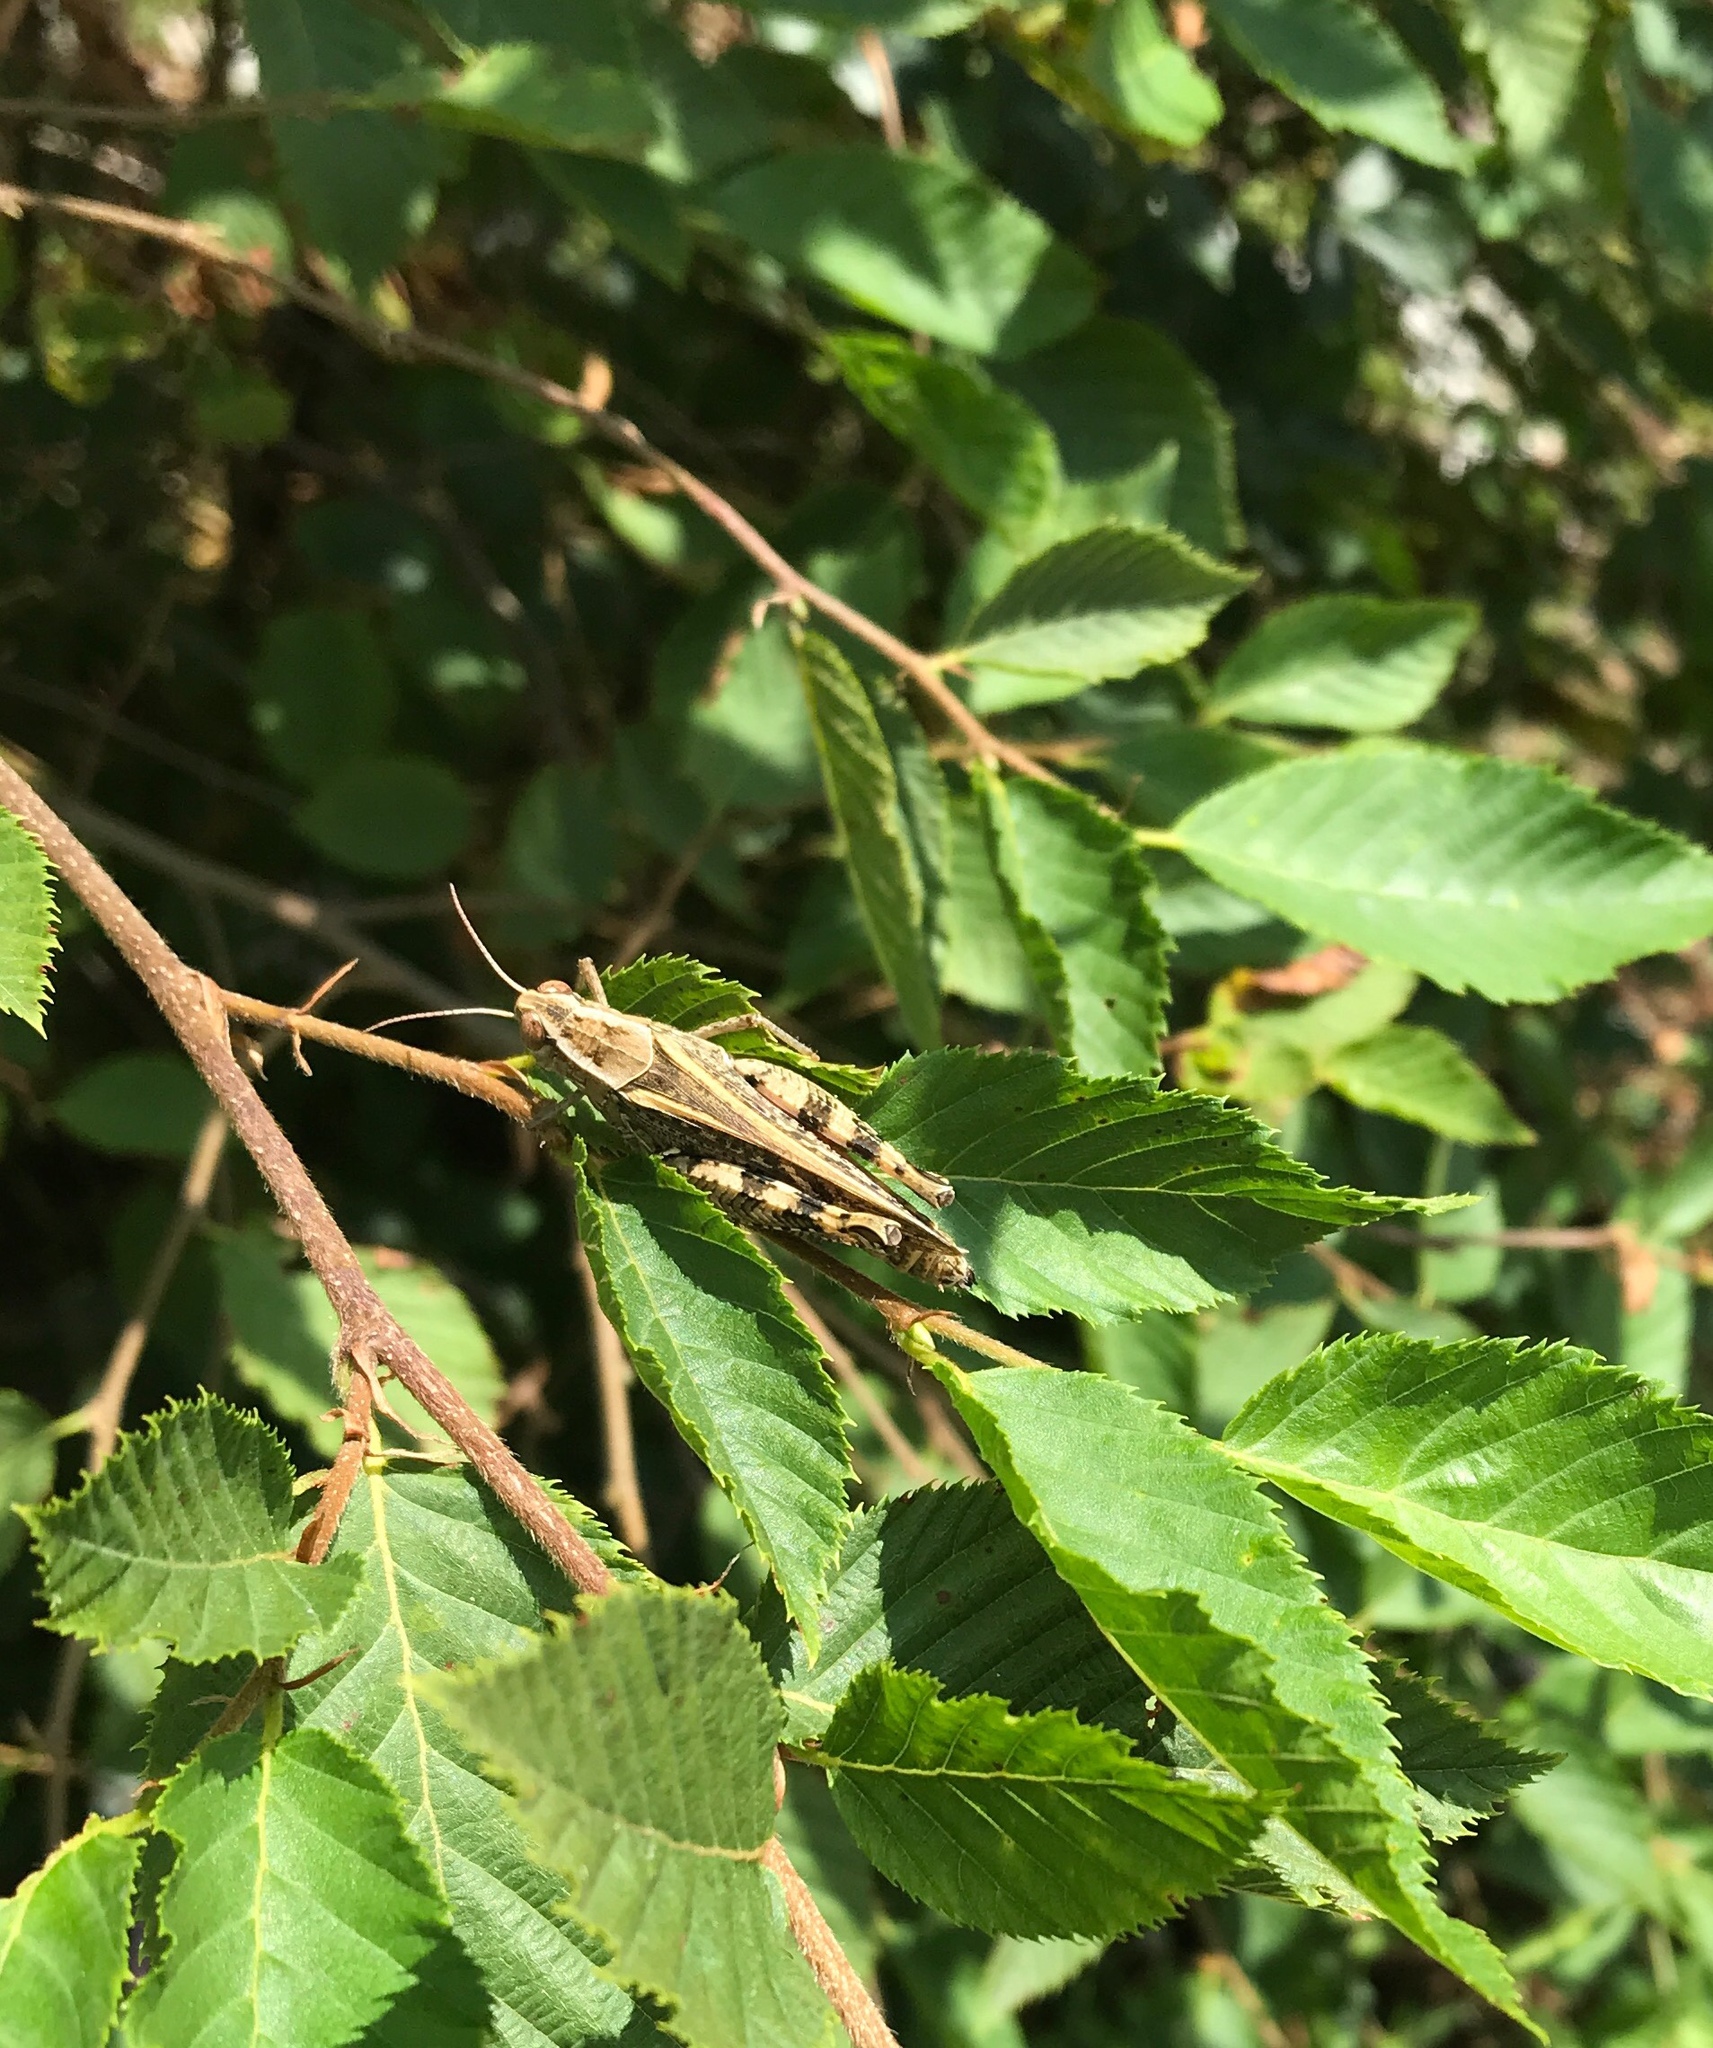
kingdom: Animalia
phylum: Arthropoda
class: Insecta
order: Orthoptera
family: Acrididae
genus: Calliptamus
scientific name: Calliptamus italicus
